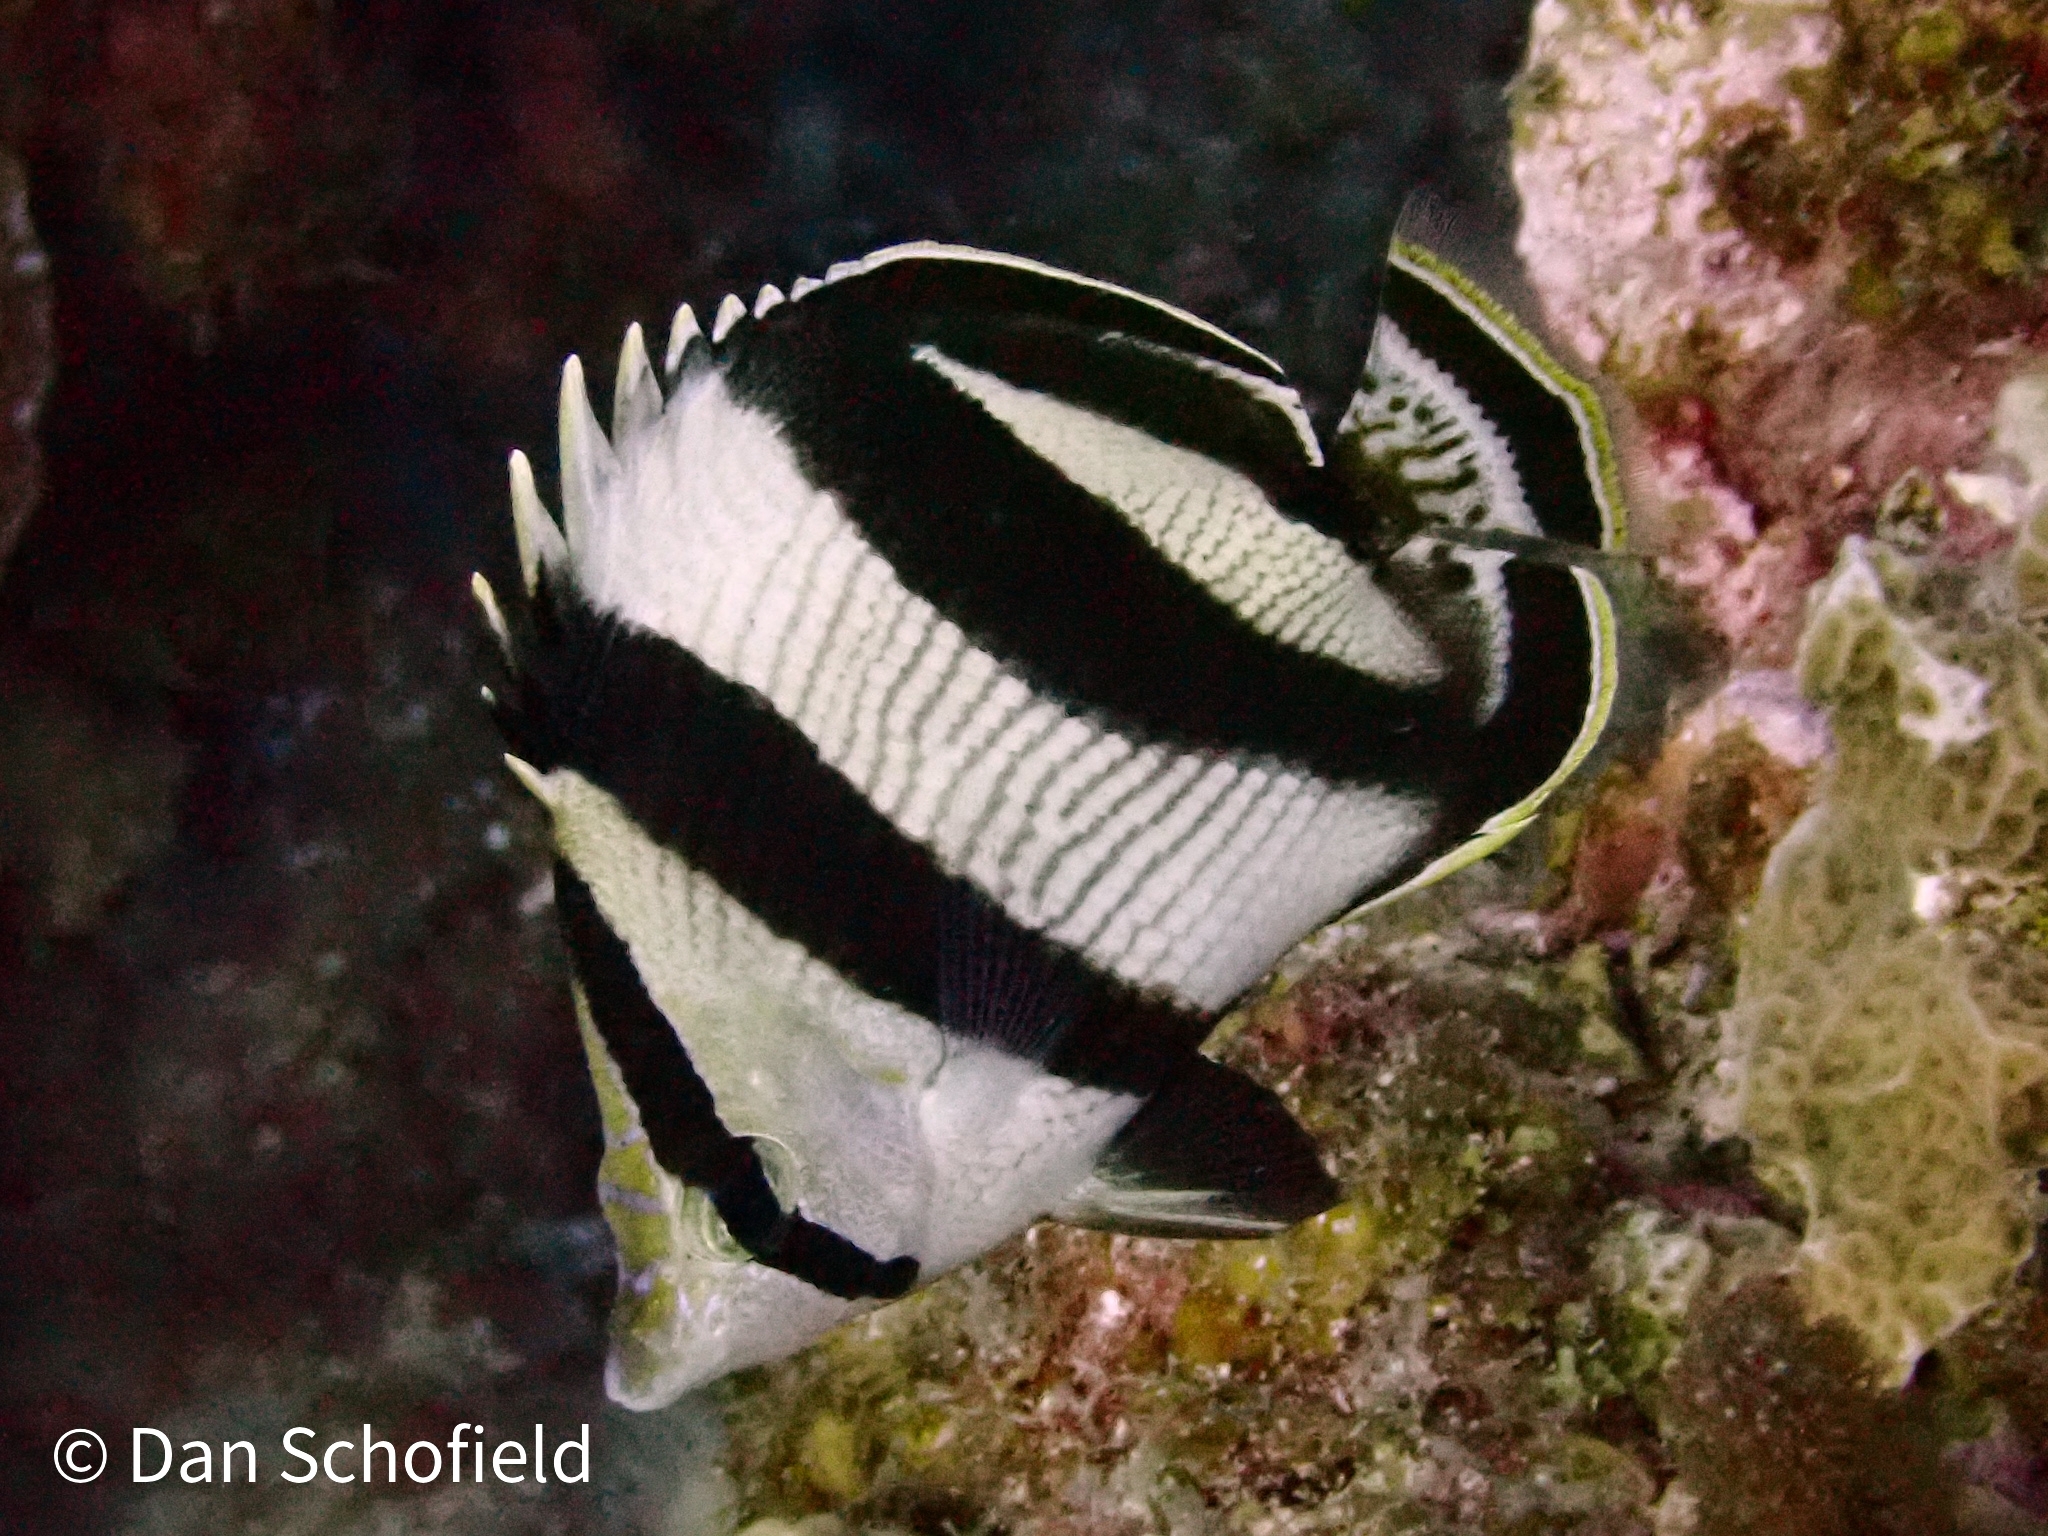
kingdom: Animalia
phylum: Chordata
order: Perciformes
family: Chaetodontidae
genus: Chaetodon
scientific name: Chaetodon striatus
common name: Banded butterflyfish
